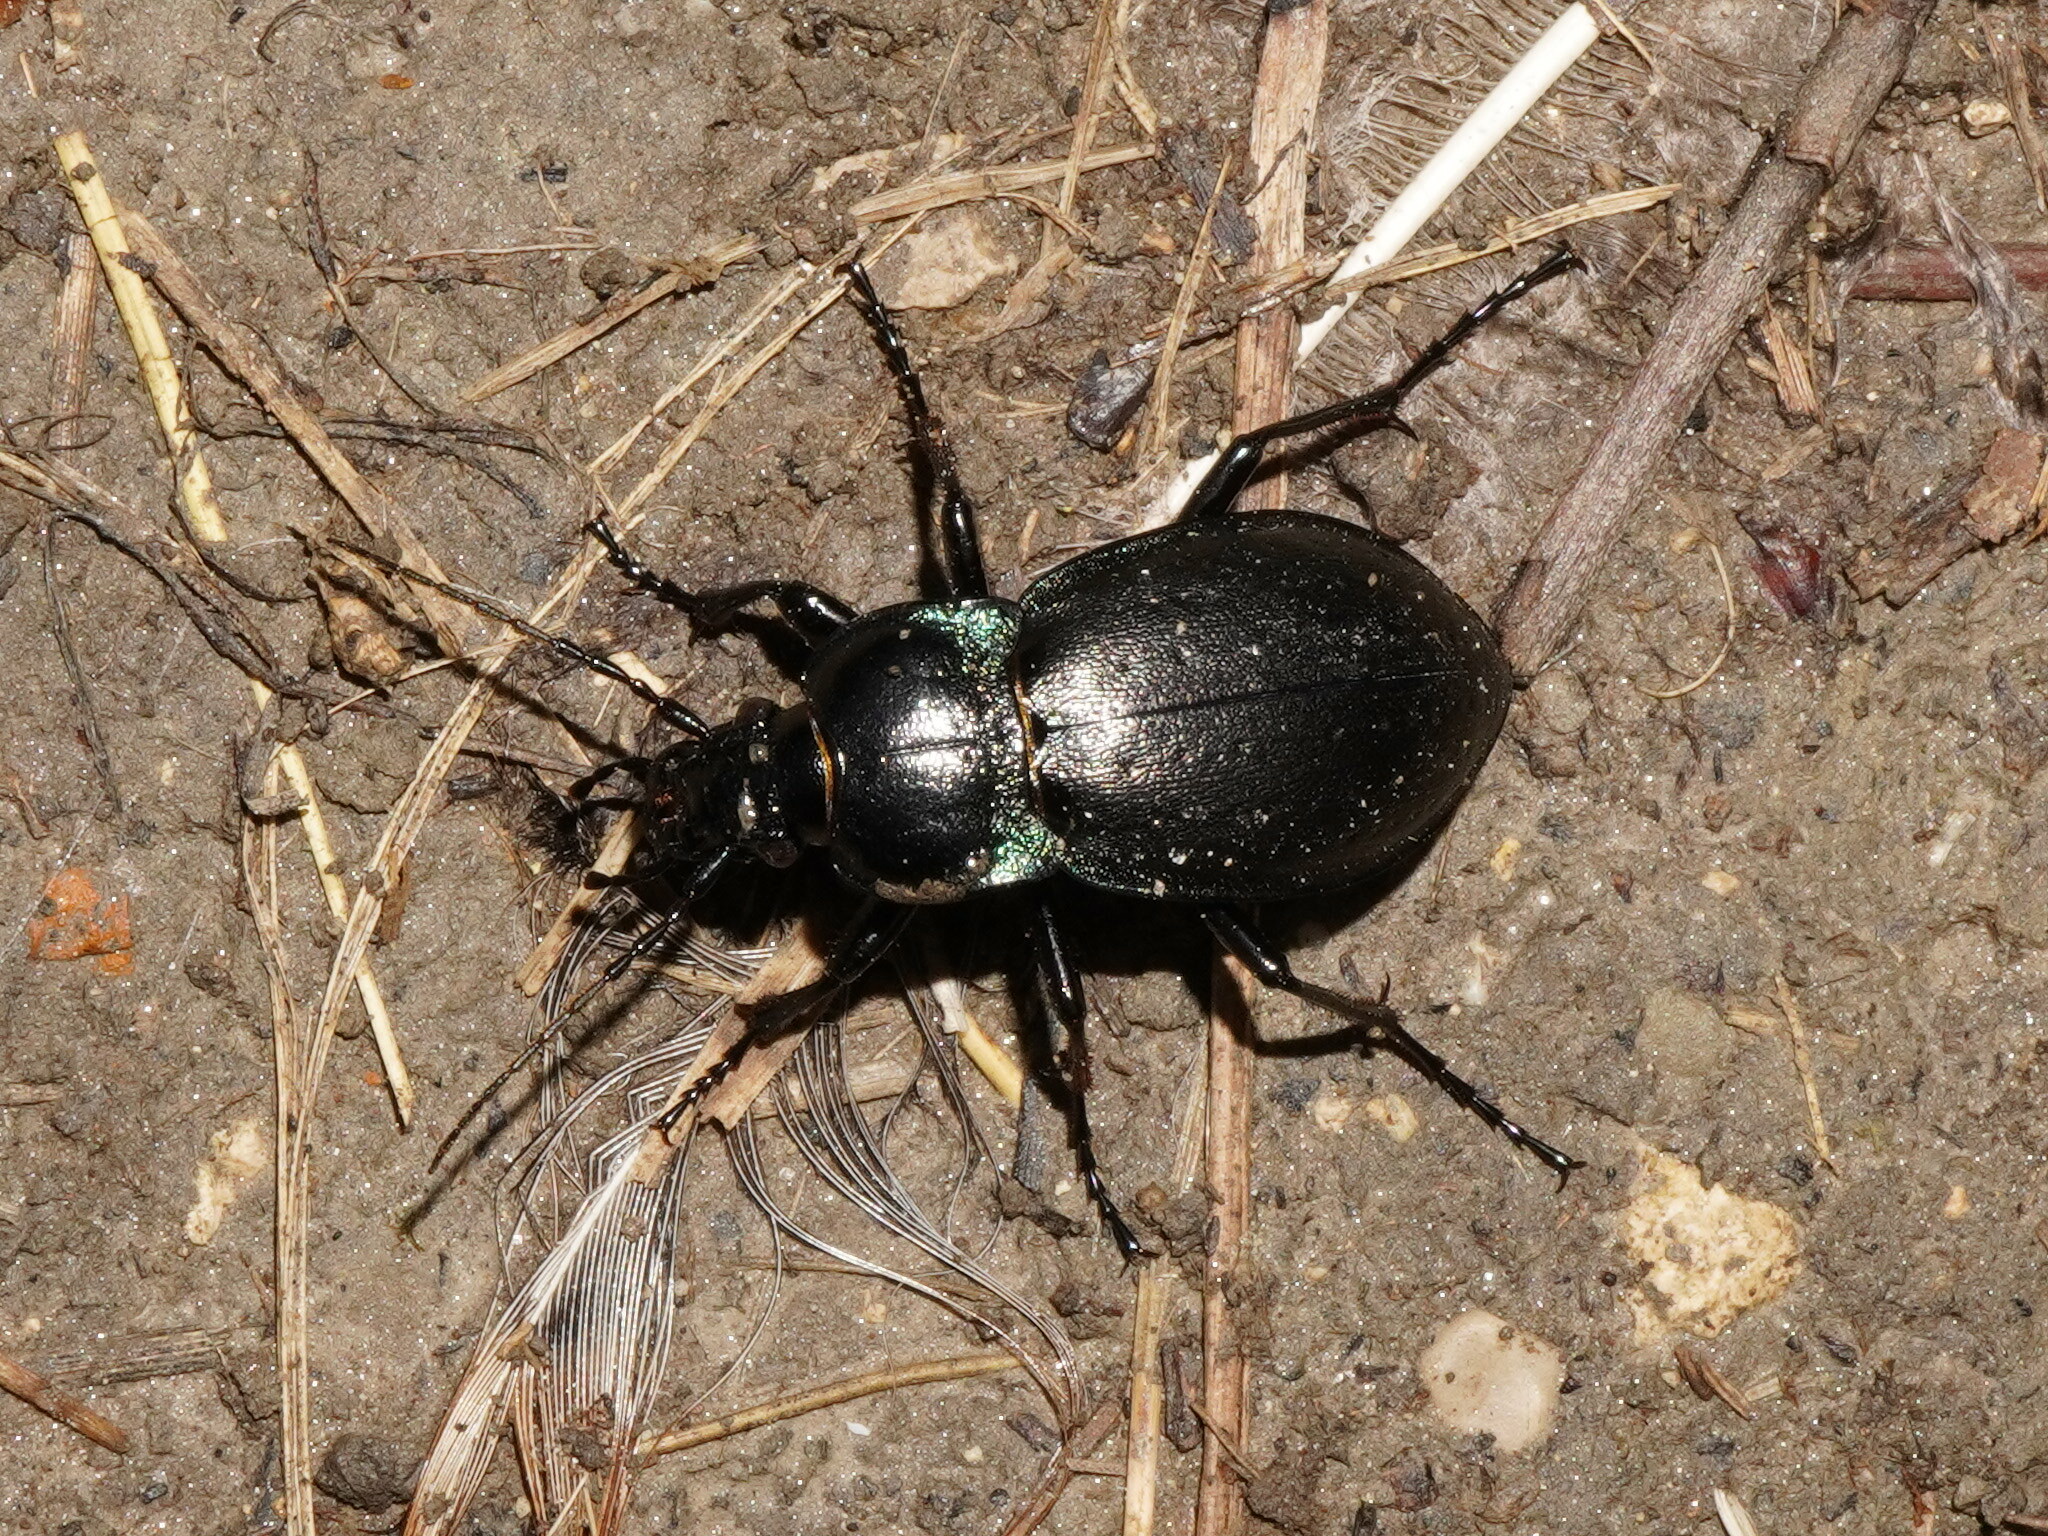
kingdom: Animalia
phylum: Arthropoda
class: Insecta
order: Coleoptera
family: Carabidae
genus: Carabus
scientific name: Carabus nemoralis
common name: European ground beetle
